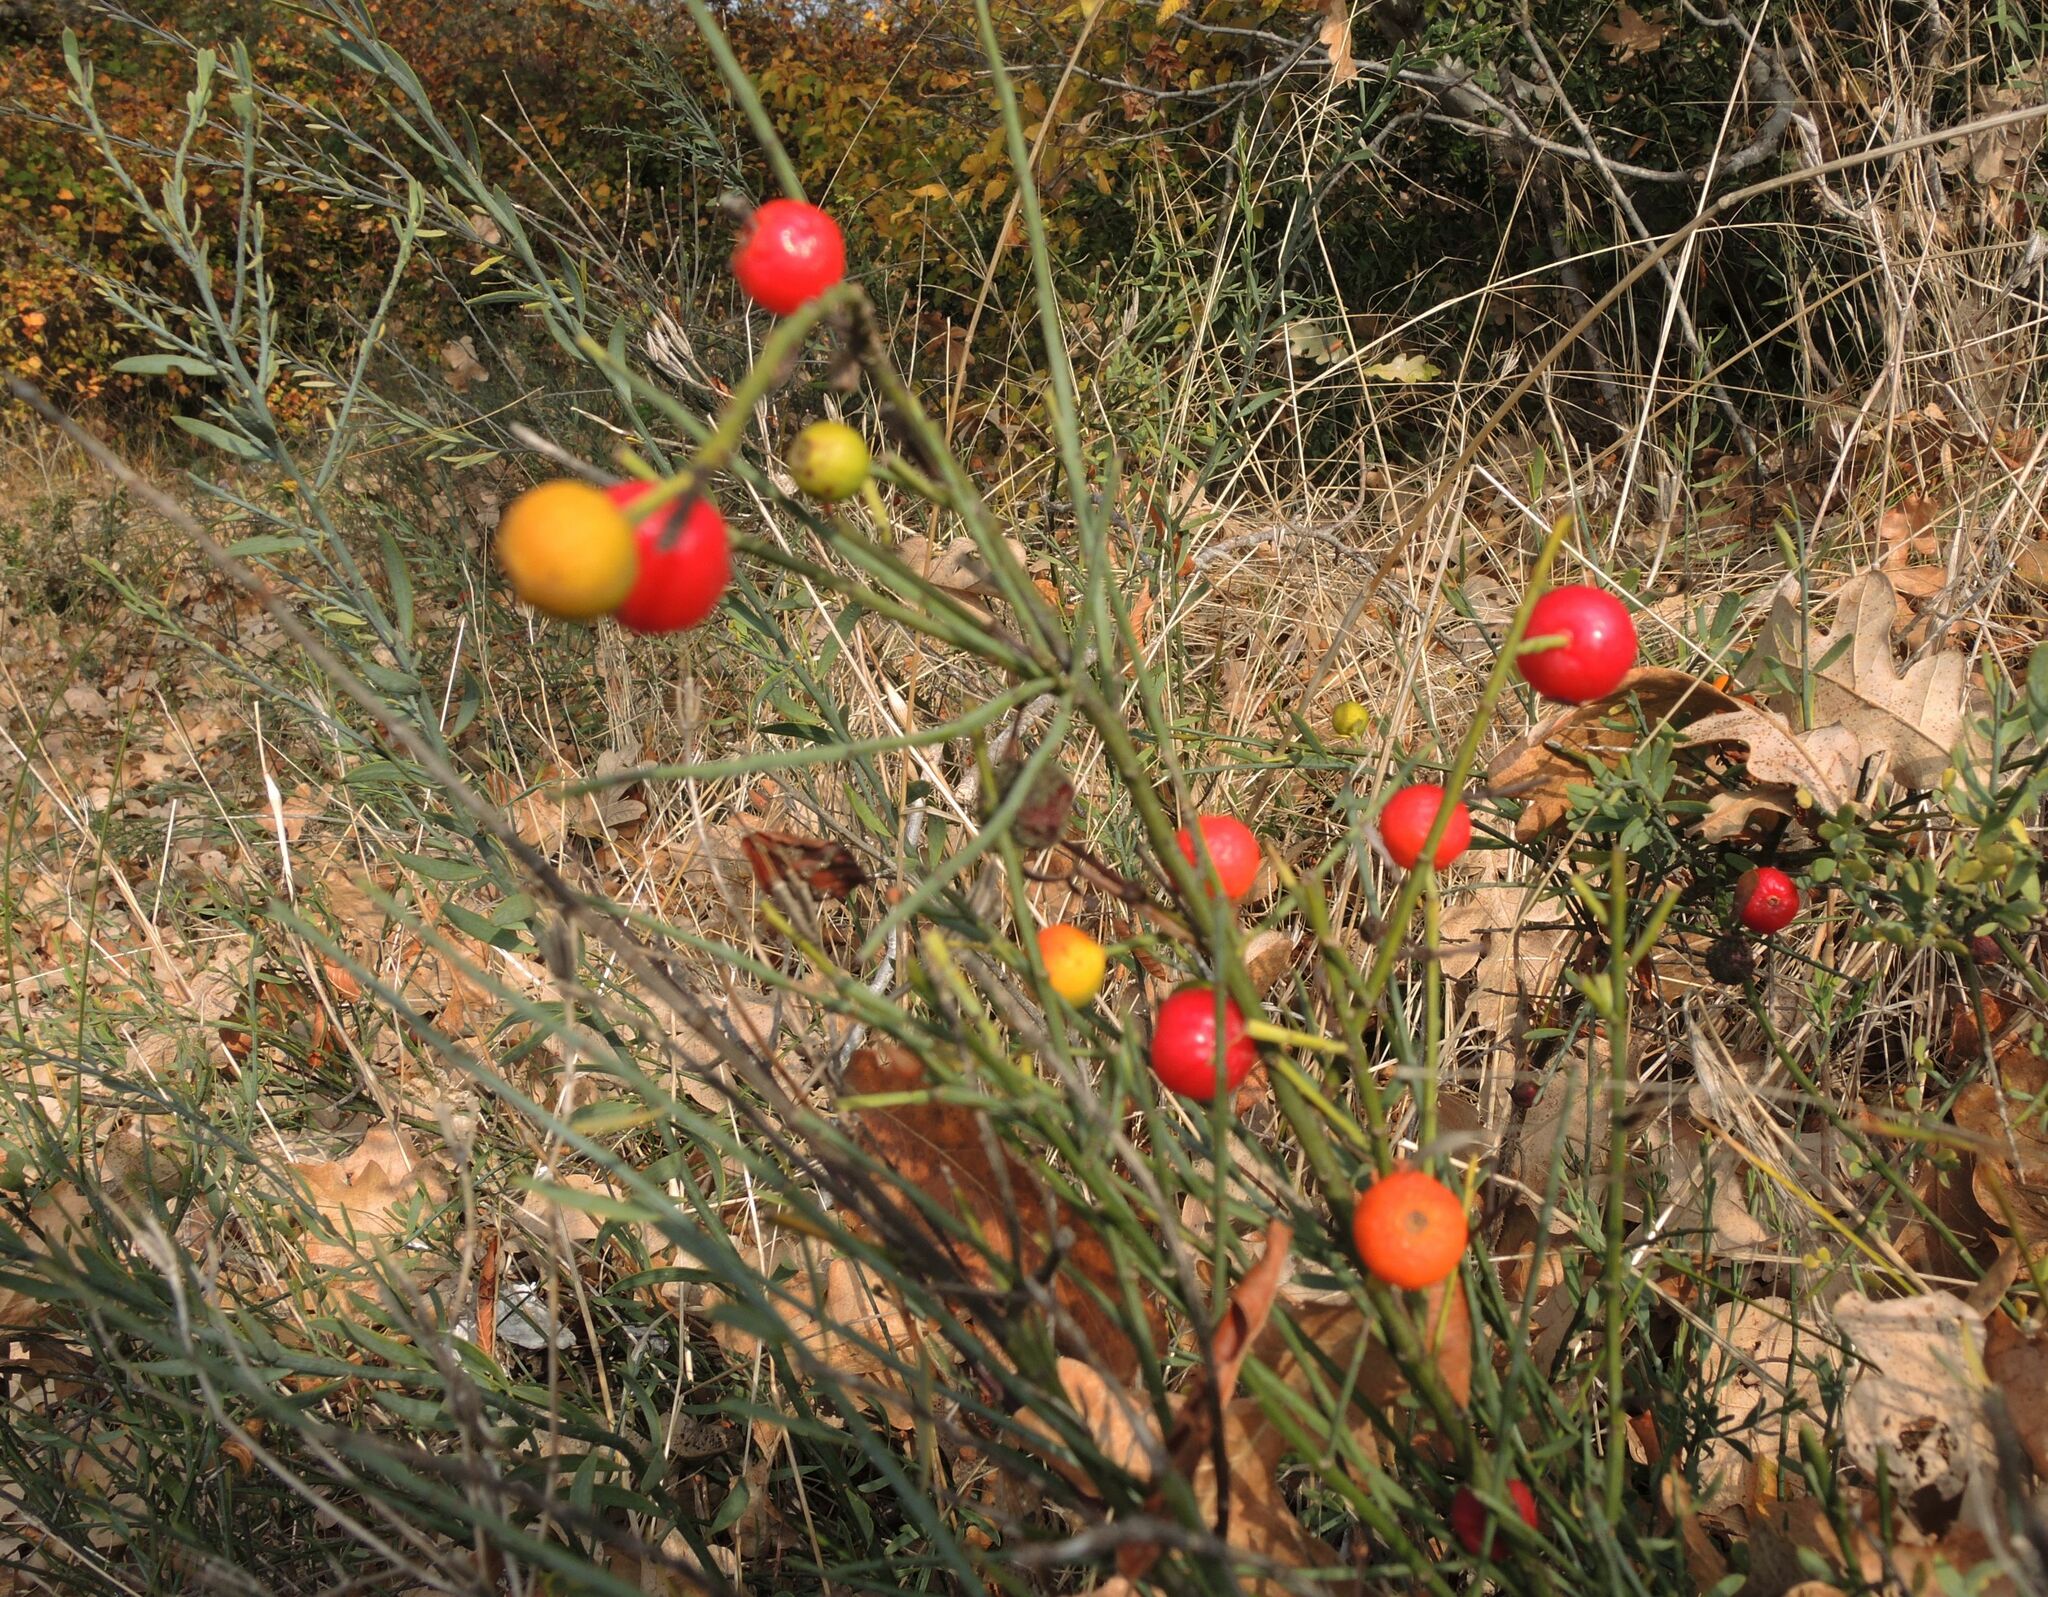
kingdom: Plantae
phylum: Tracheophyta
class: Magnoliopsida
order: Santalales
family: Santalaceae
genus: Osyris
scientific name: Osyris alba
